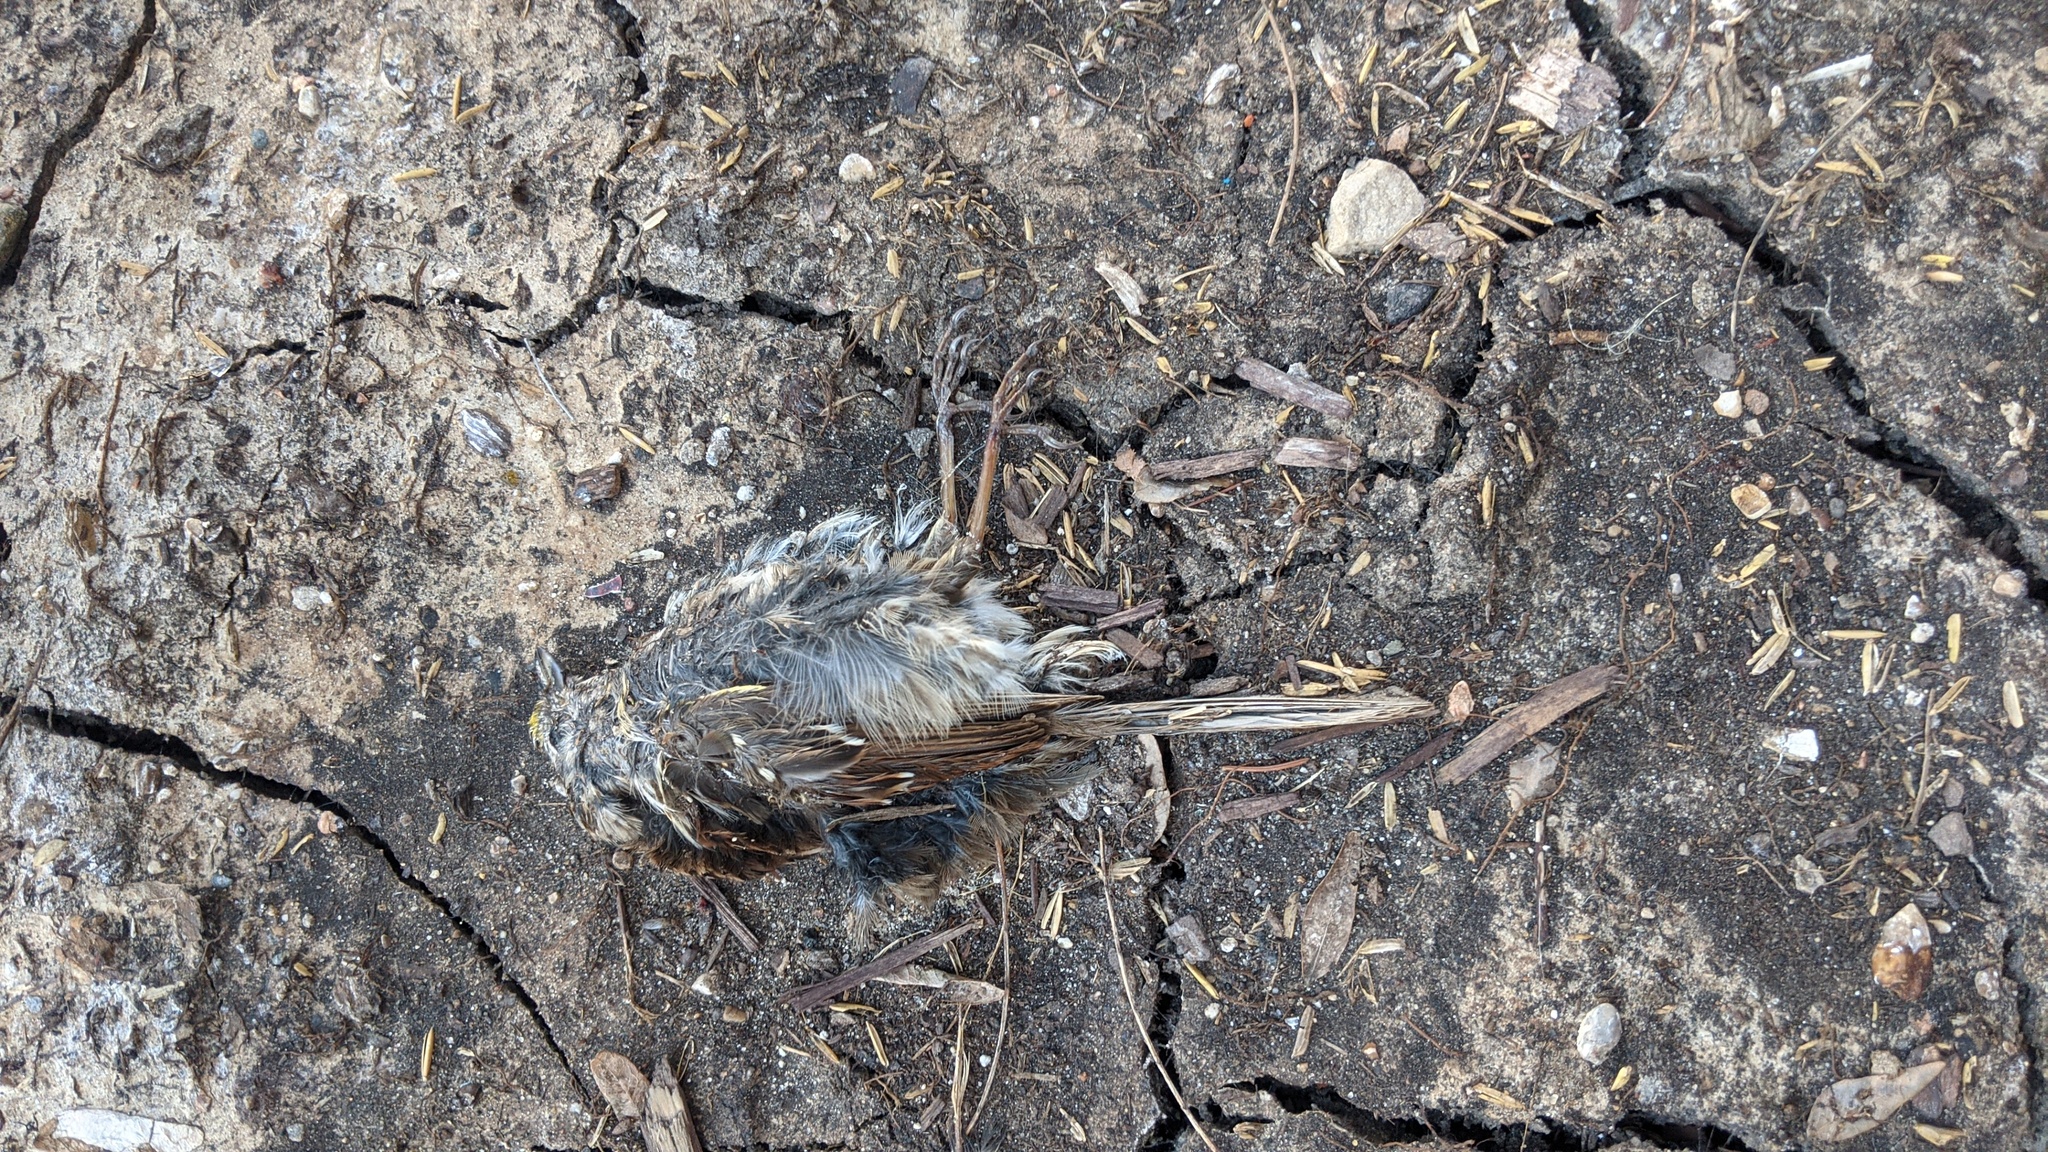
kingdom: Animalia
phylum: Chordata
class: Aves
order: Passeriformes
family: Passerellidae
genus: Zonotrichia
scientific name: Zonotrichia albicollis
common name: White-throated sparrow
